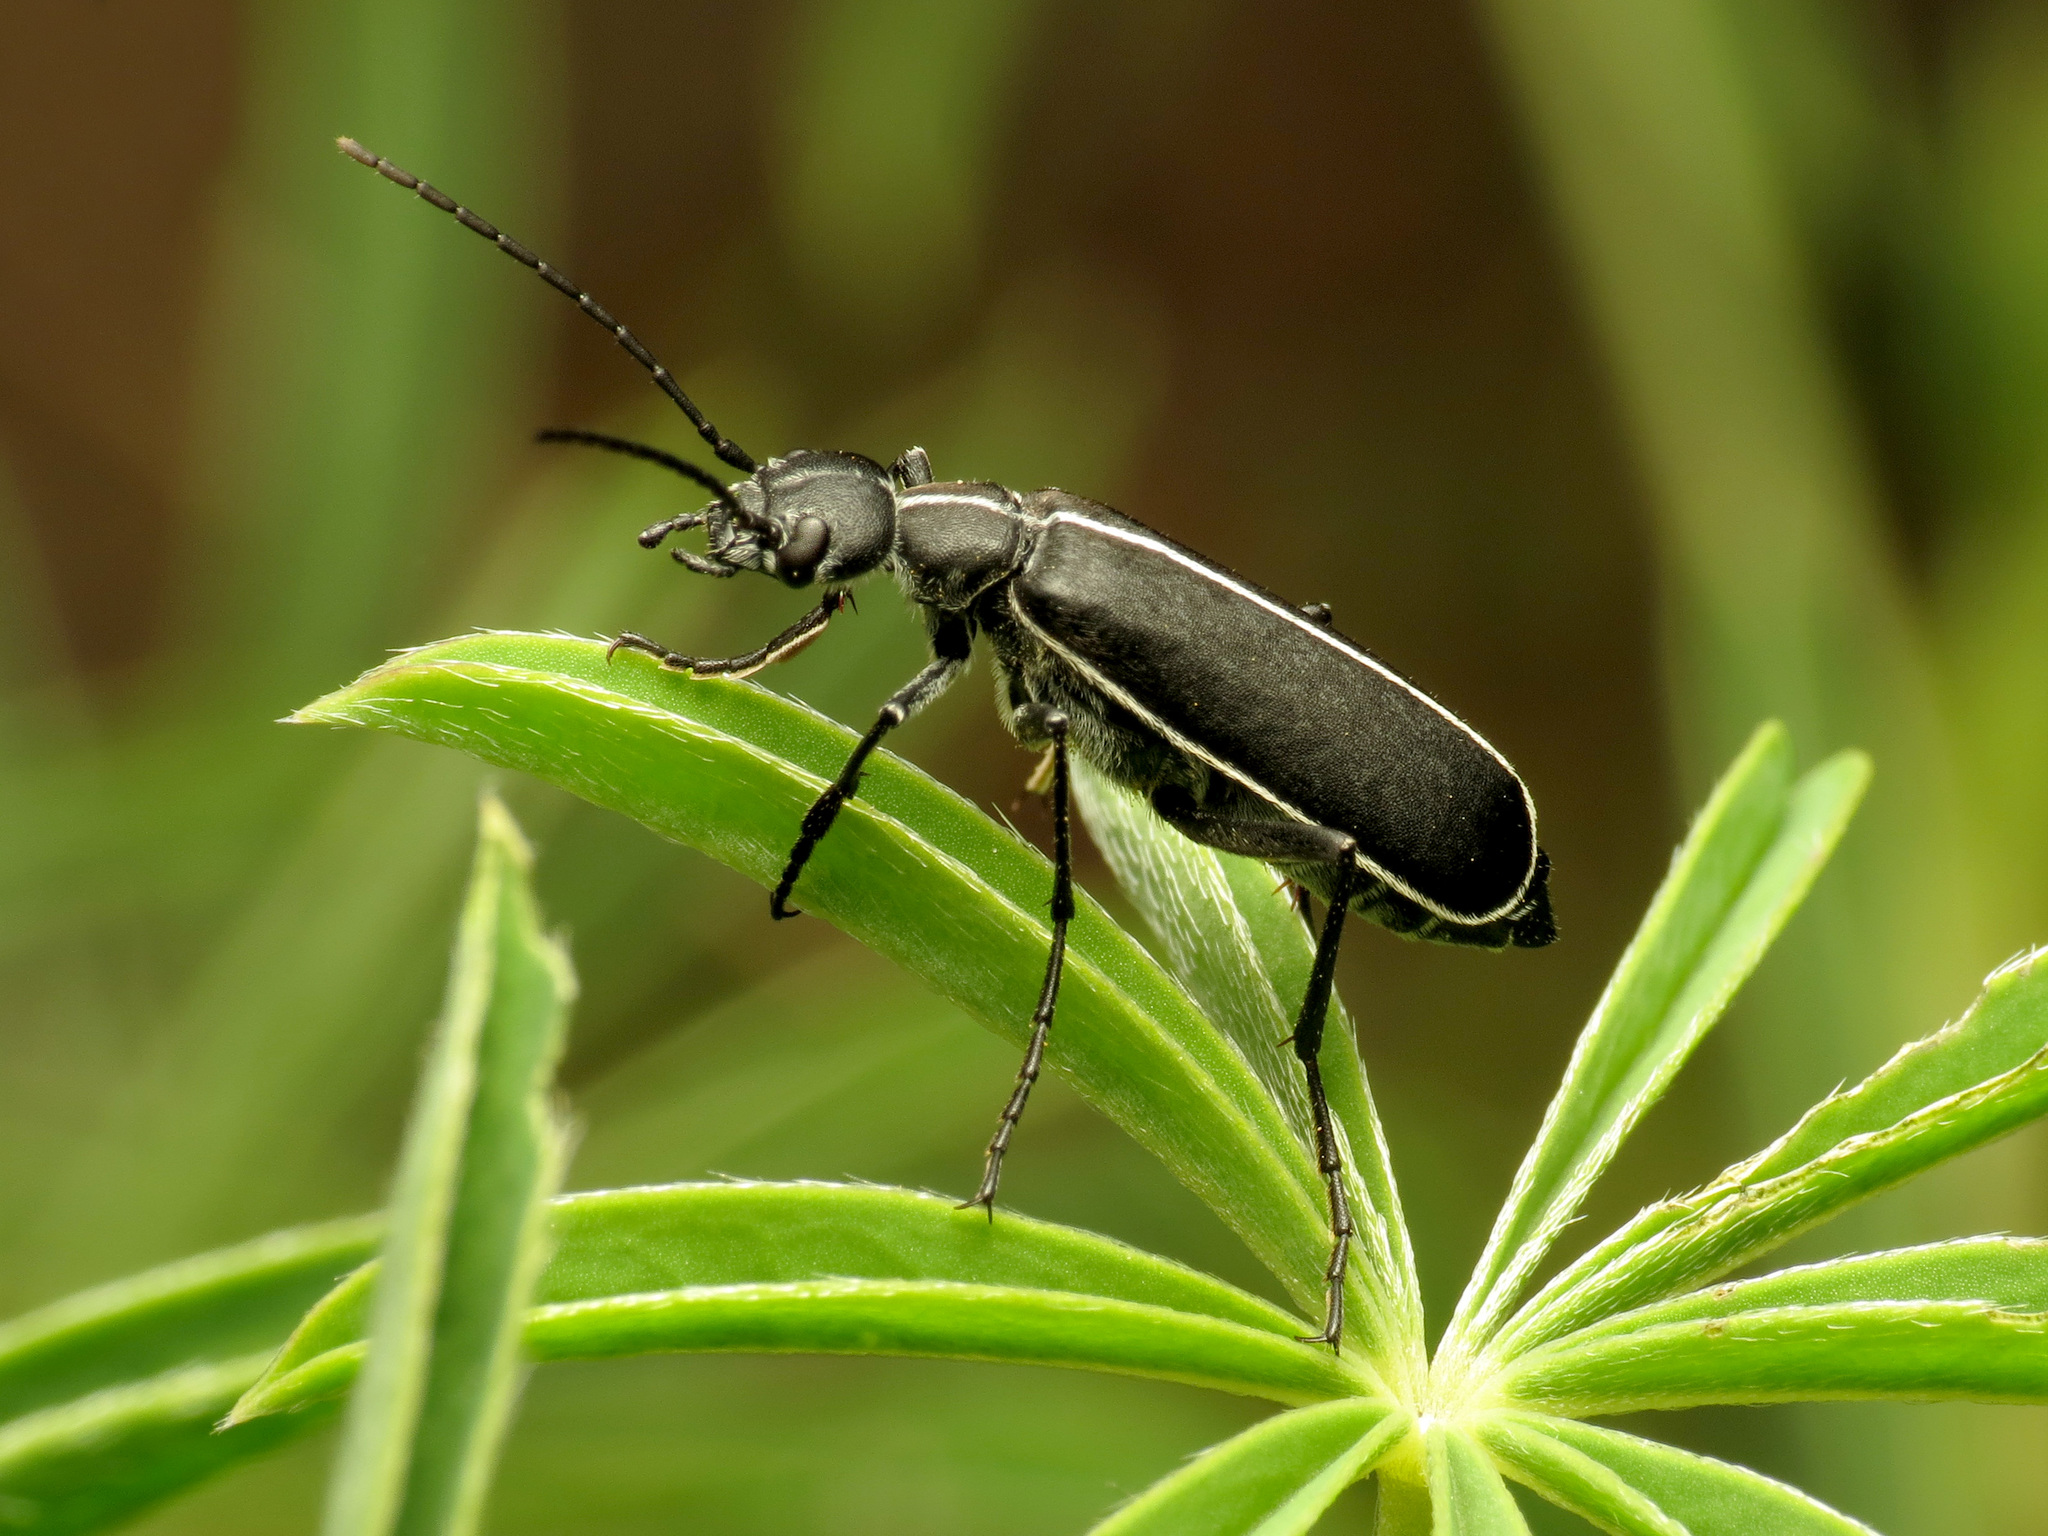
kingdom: Animalia
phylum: Arthropoda
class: Insecta
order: Coleoptera
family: Meloidae
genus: Epicauta
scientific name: Epicauta cinctipennis
